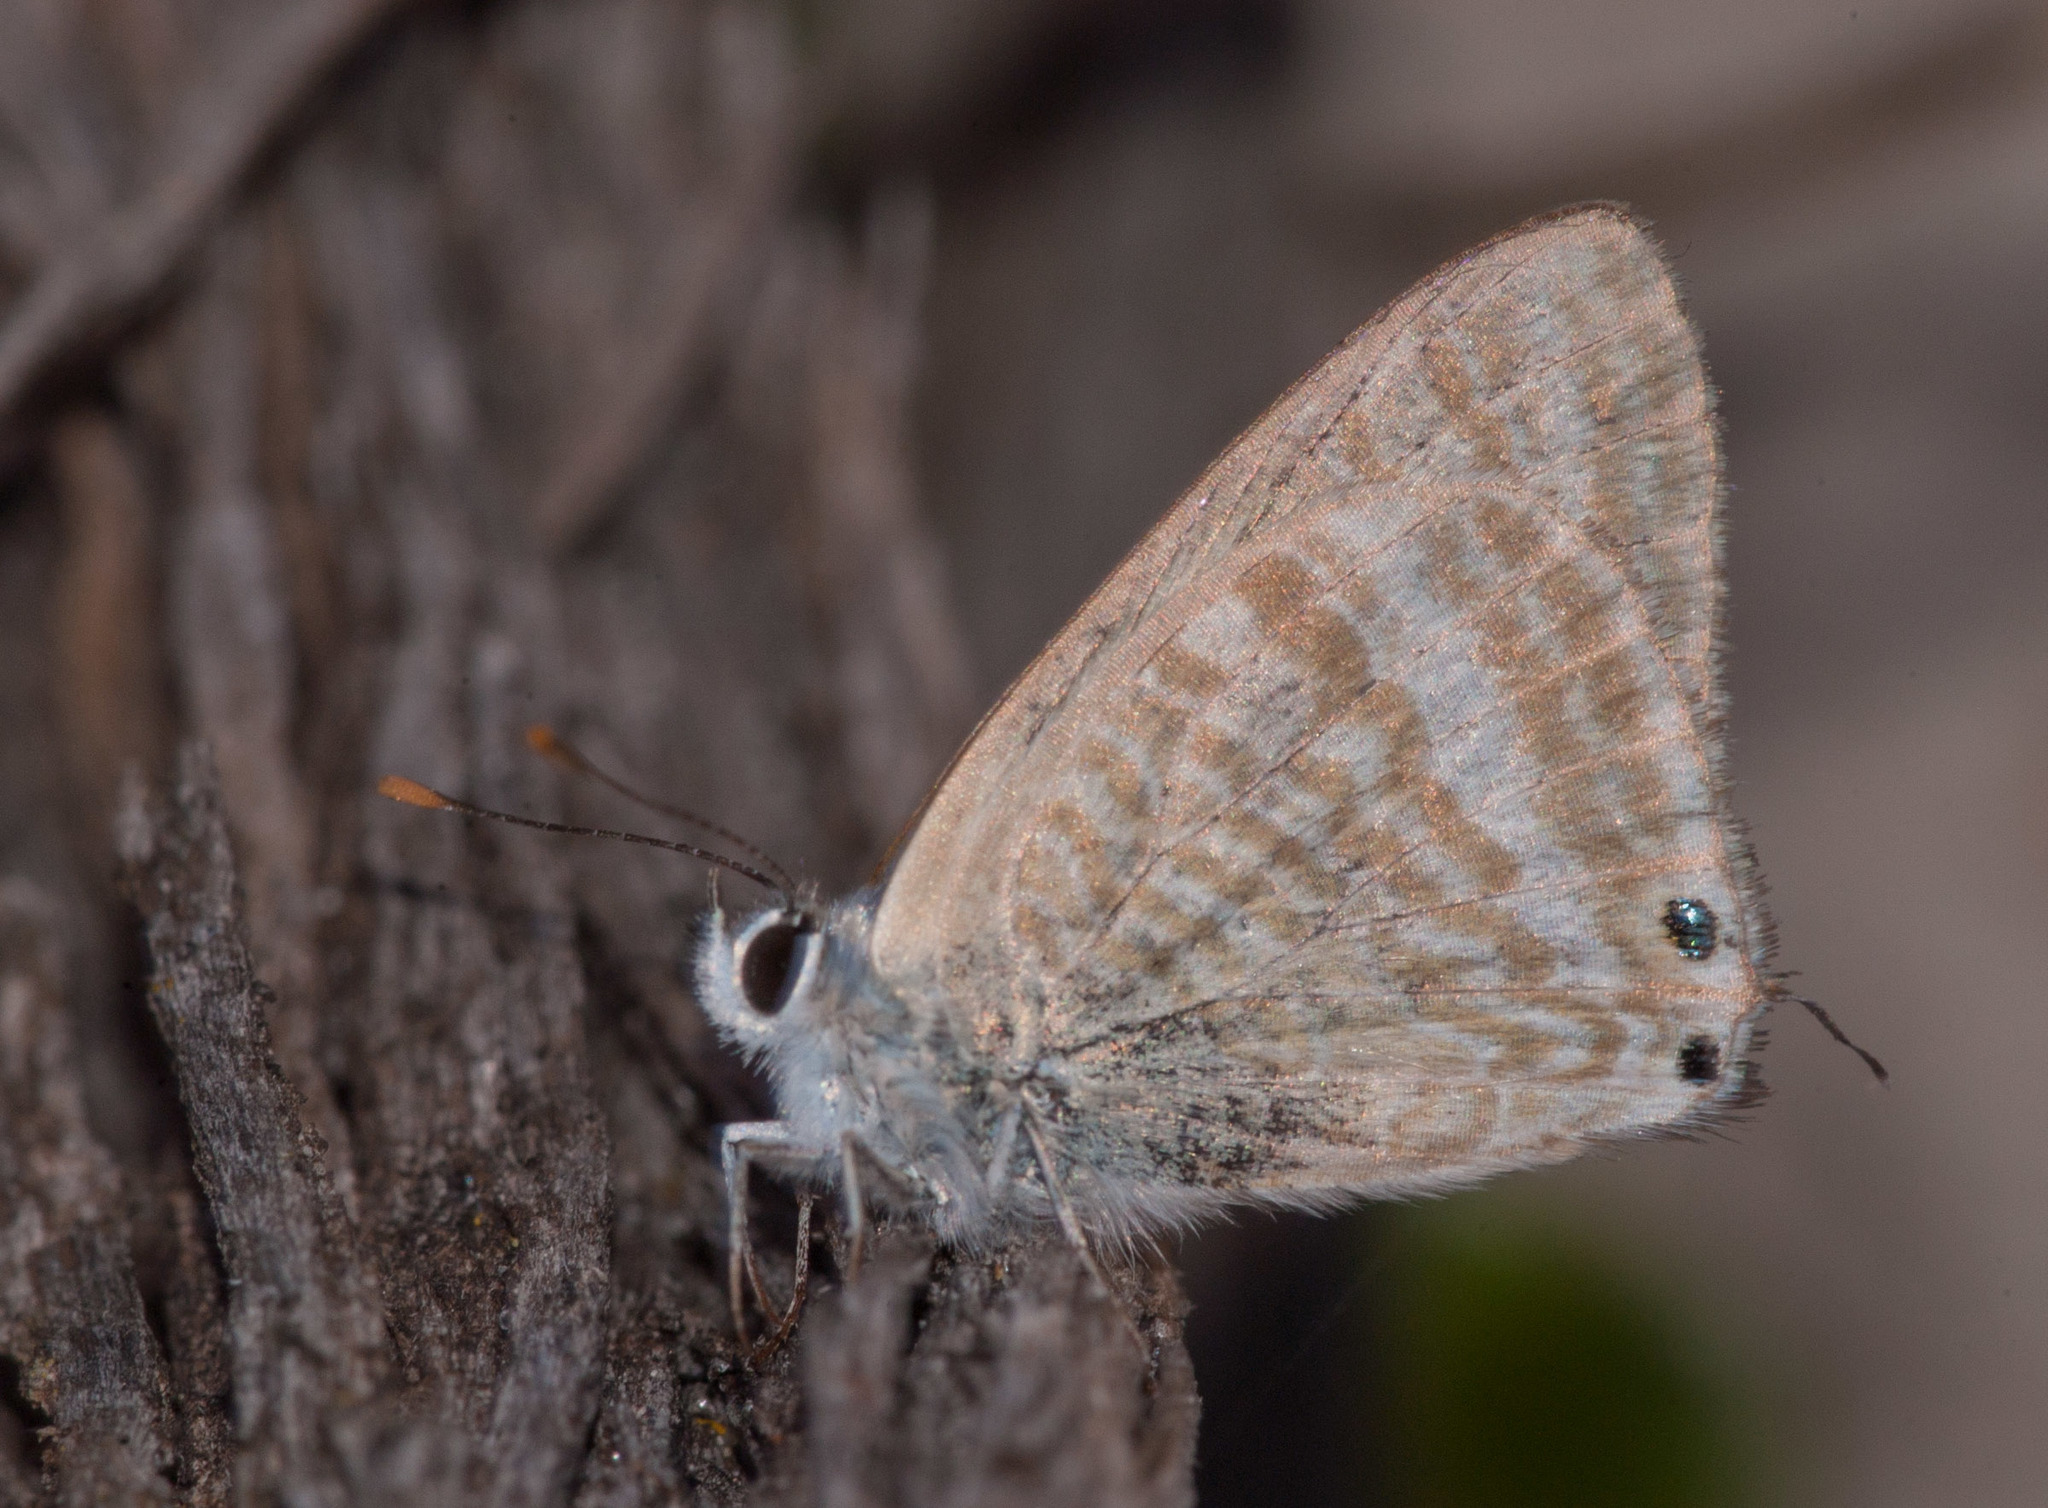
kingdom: Animalia
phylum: Arthropoda
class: Insecta
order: Lepidoptera
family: Lycaenidae
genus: Lampides
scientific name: Lampides boeticus
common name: Long-tailed blue
